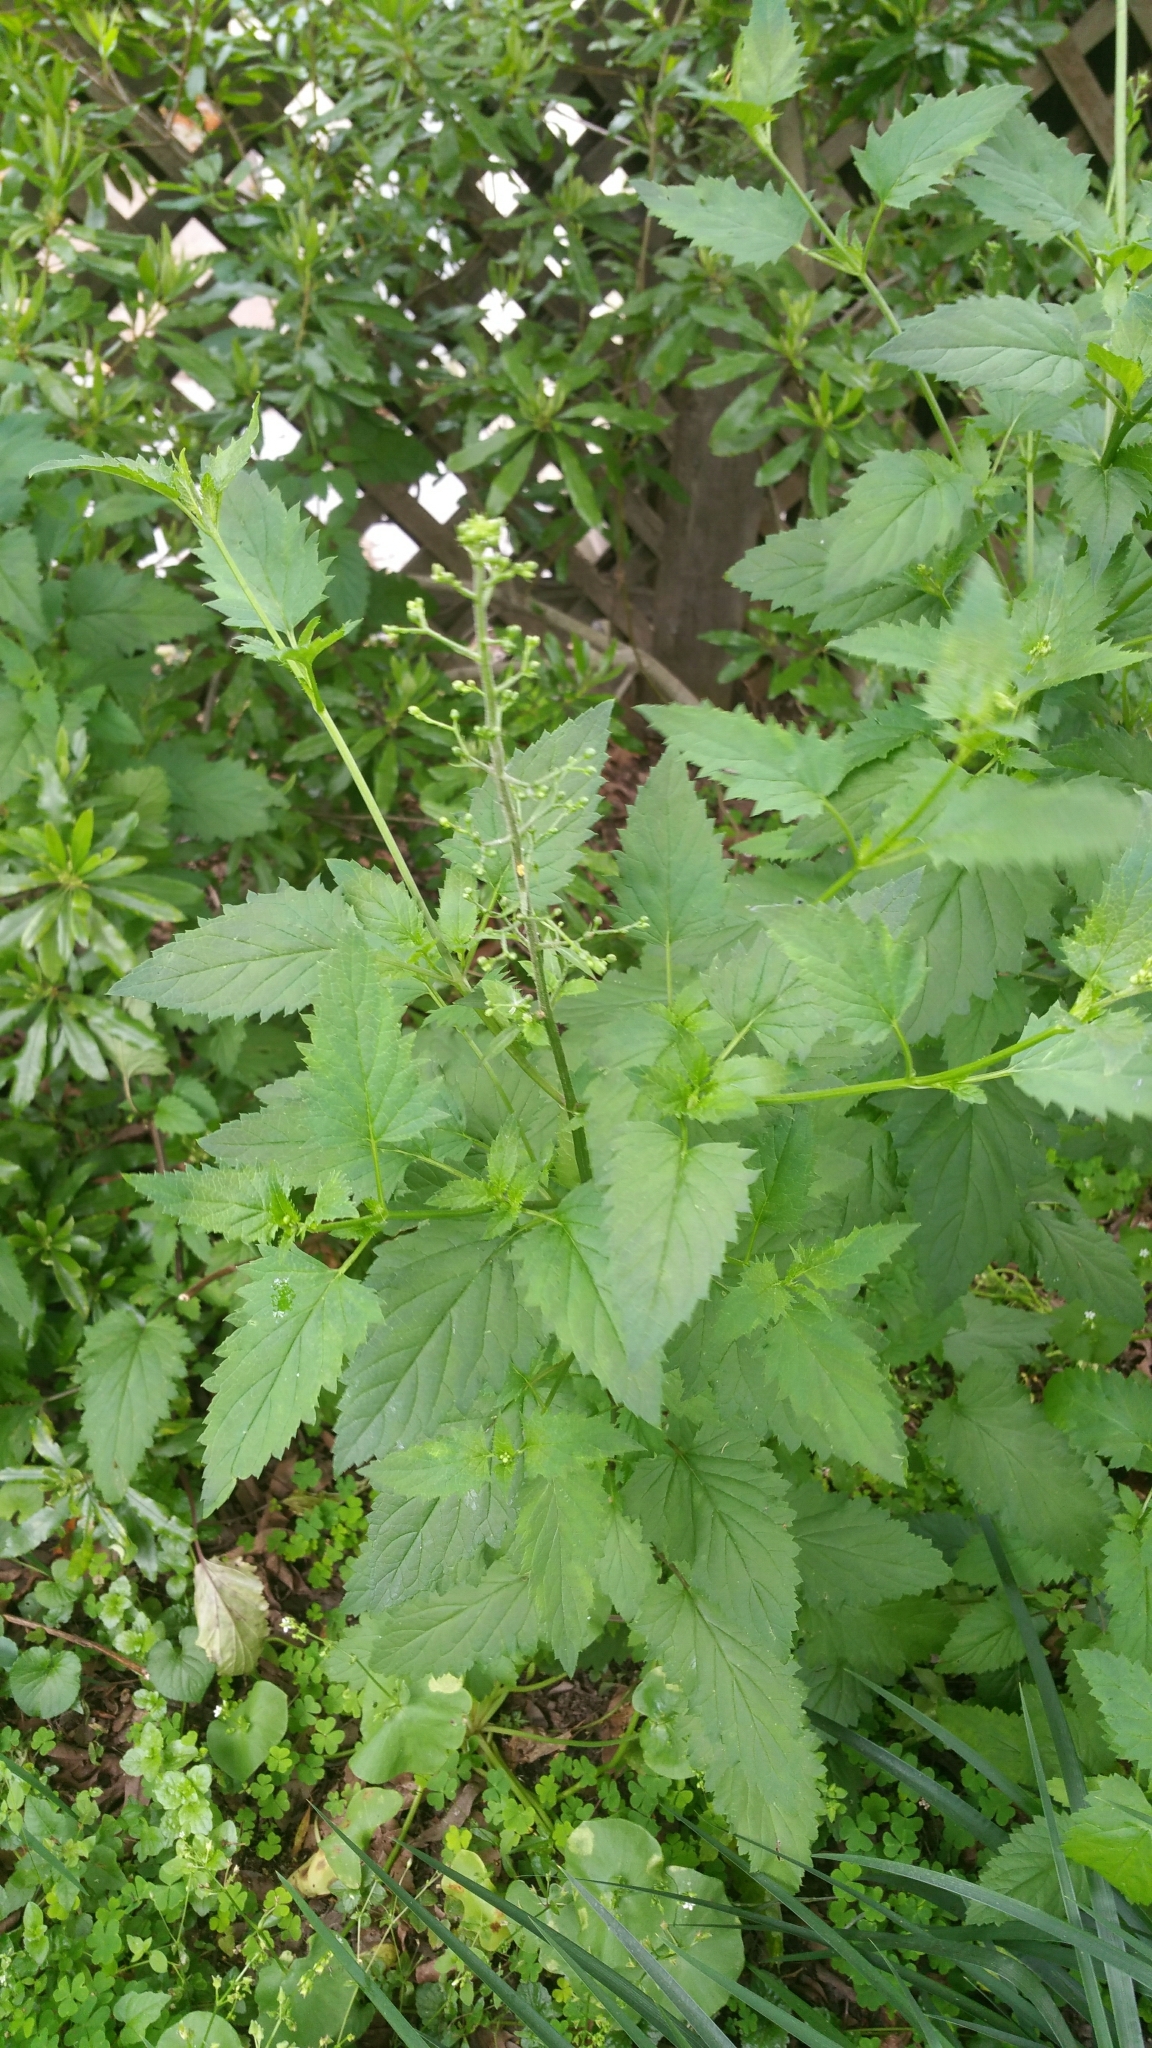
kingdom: Plantae
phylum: Tracheophyta
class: Magnoliopsida
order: Lamiales
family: Scrophulariaceae
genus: Scrophularia
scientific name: Scrophularia californica
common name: California figwort
